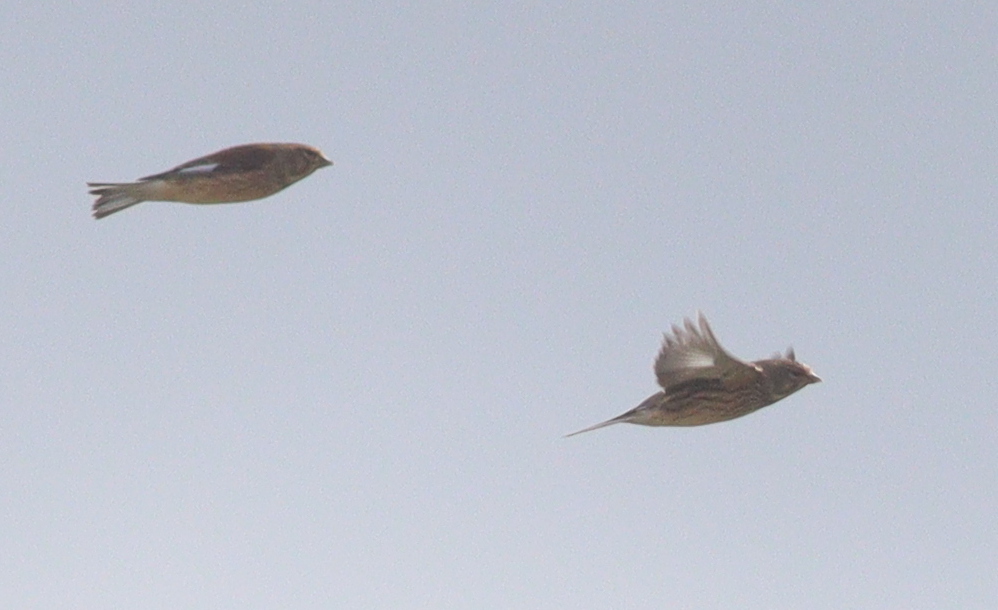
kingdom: Animalia
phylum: Chordata
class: Aves
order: Passeriformes
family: Fringillidae
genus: Linaria
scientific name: Linaria cannabina
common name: Common linnet
